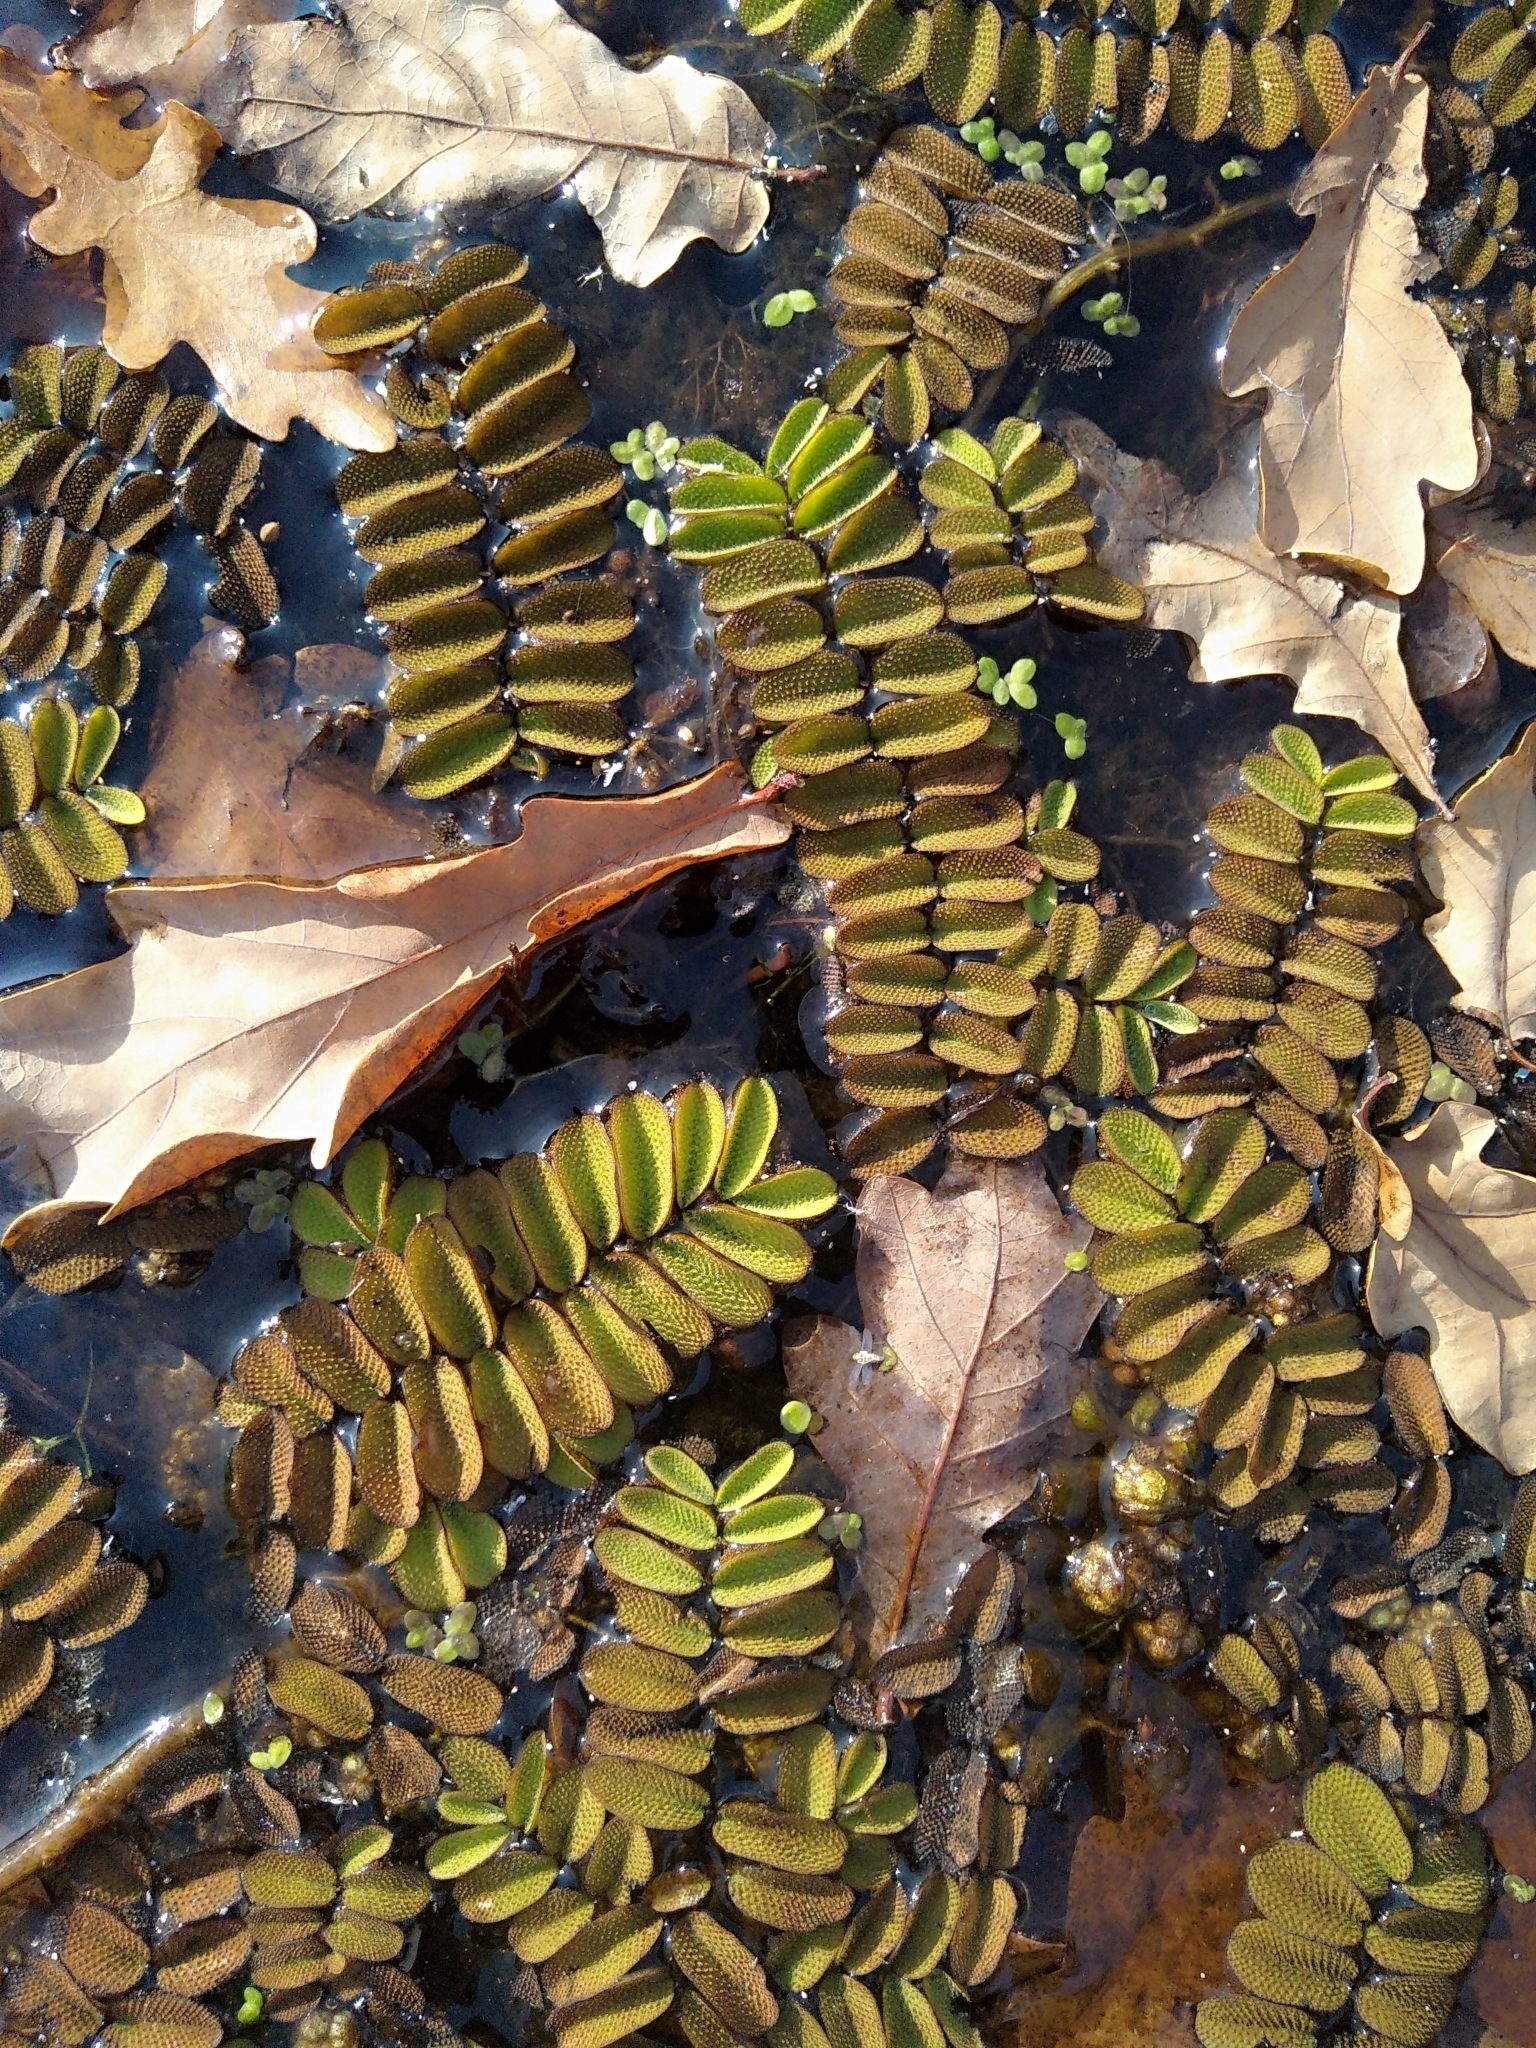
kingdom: Plantae
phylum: Tracheophyta
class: Polypodiopsida
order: Salviniales
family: Salviniaceae
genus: Salvinia
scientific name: Salvinia natans
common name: Floating fern
